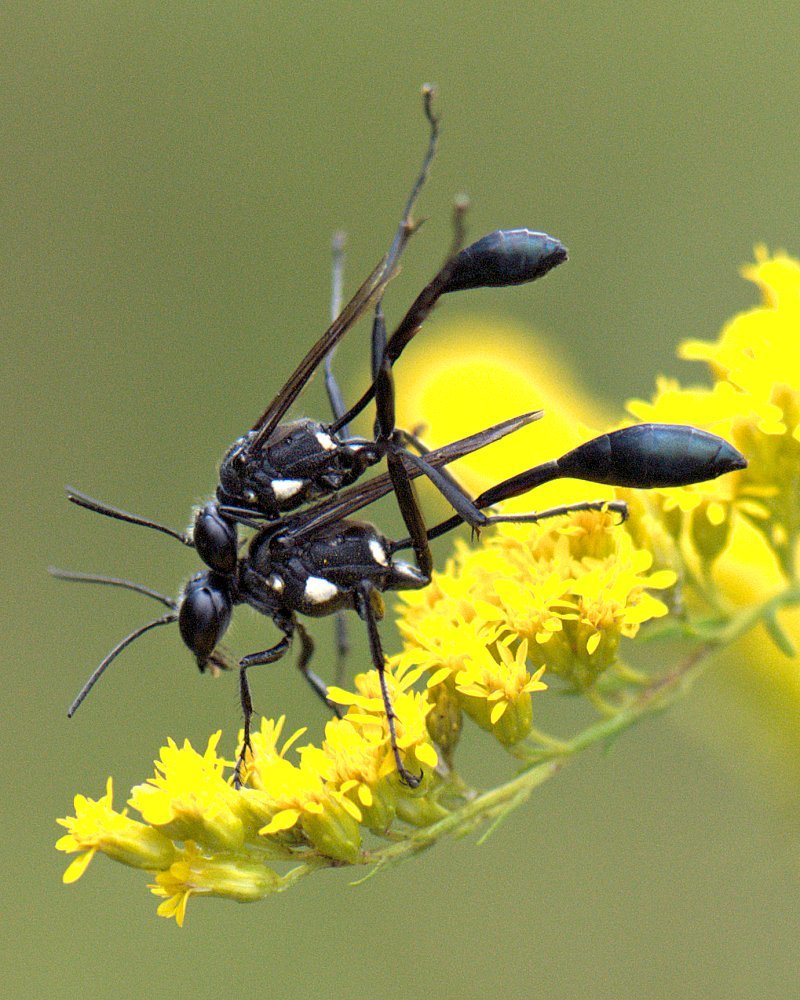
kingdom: Animalia
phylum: Arthropoda
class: Insecta
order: Hymenoptera
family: Sphecidae
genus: Eremnophila
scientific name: Eremnophila aureonotata
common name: Gold-marked thread-waisted wasp
